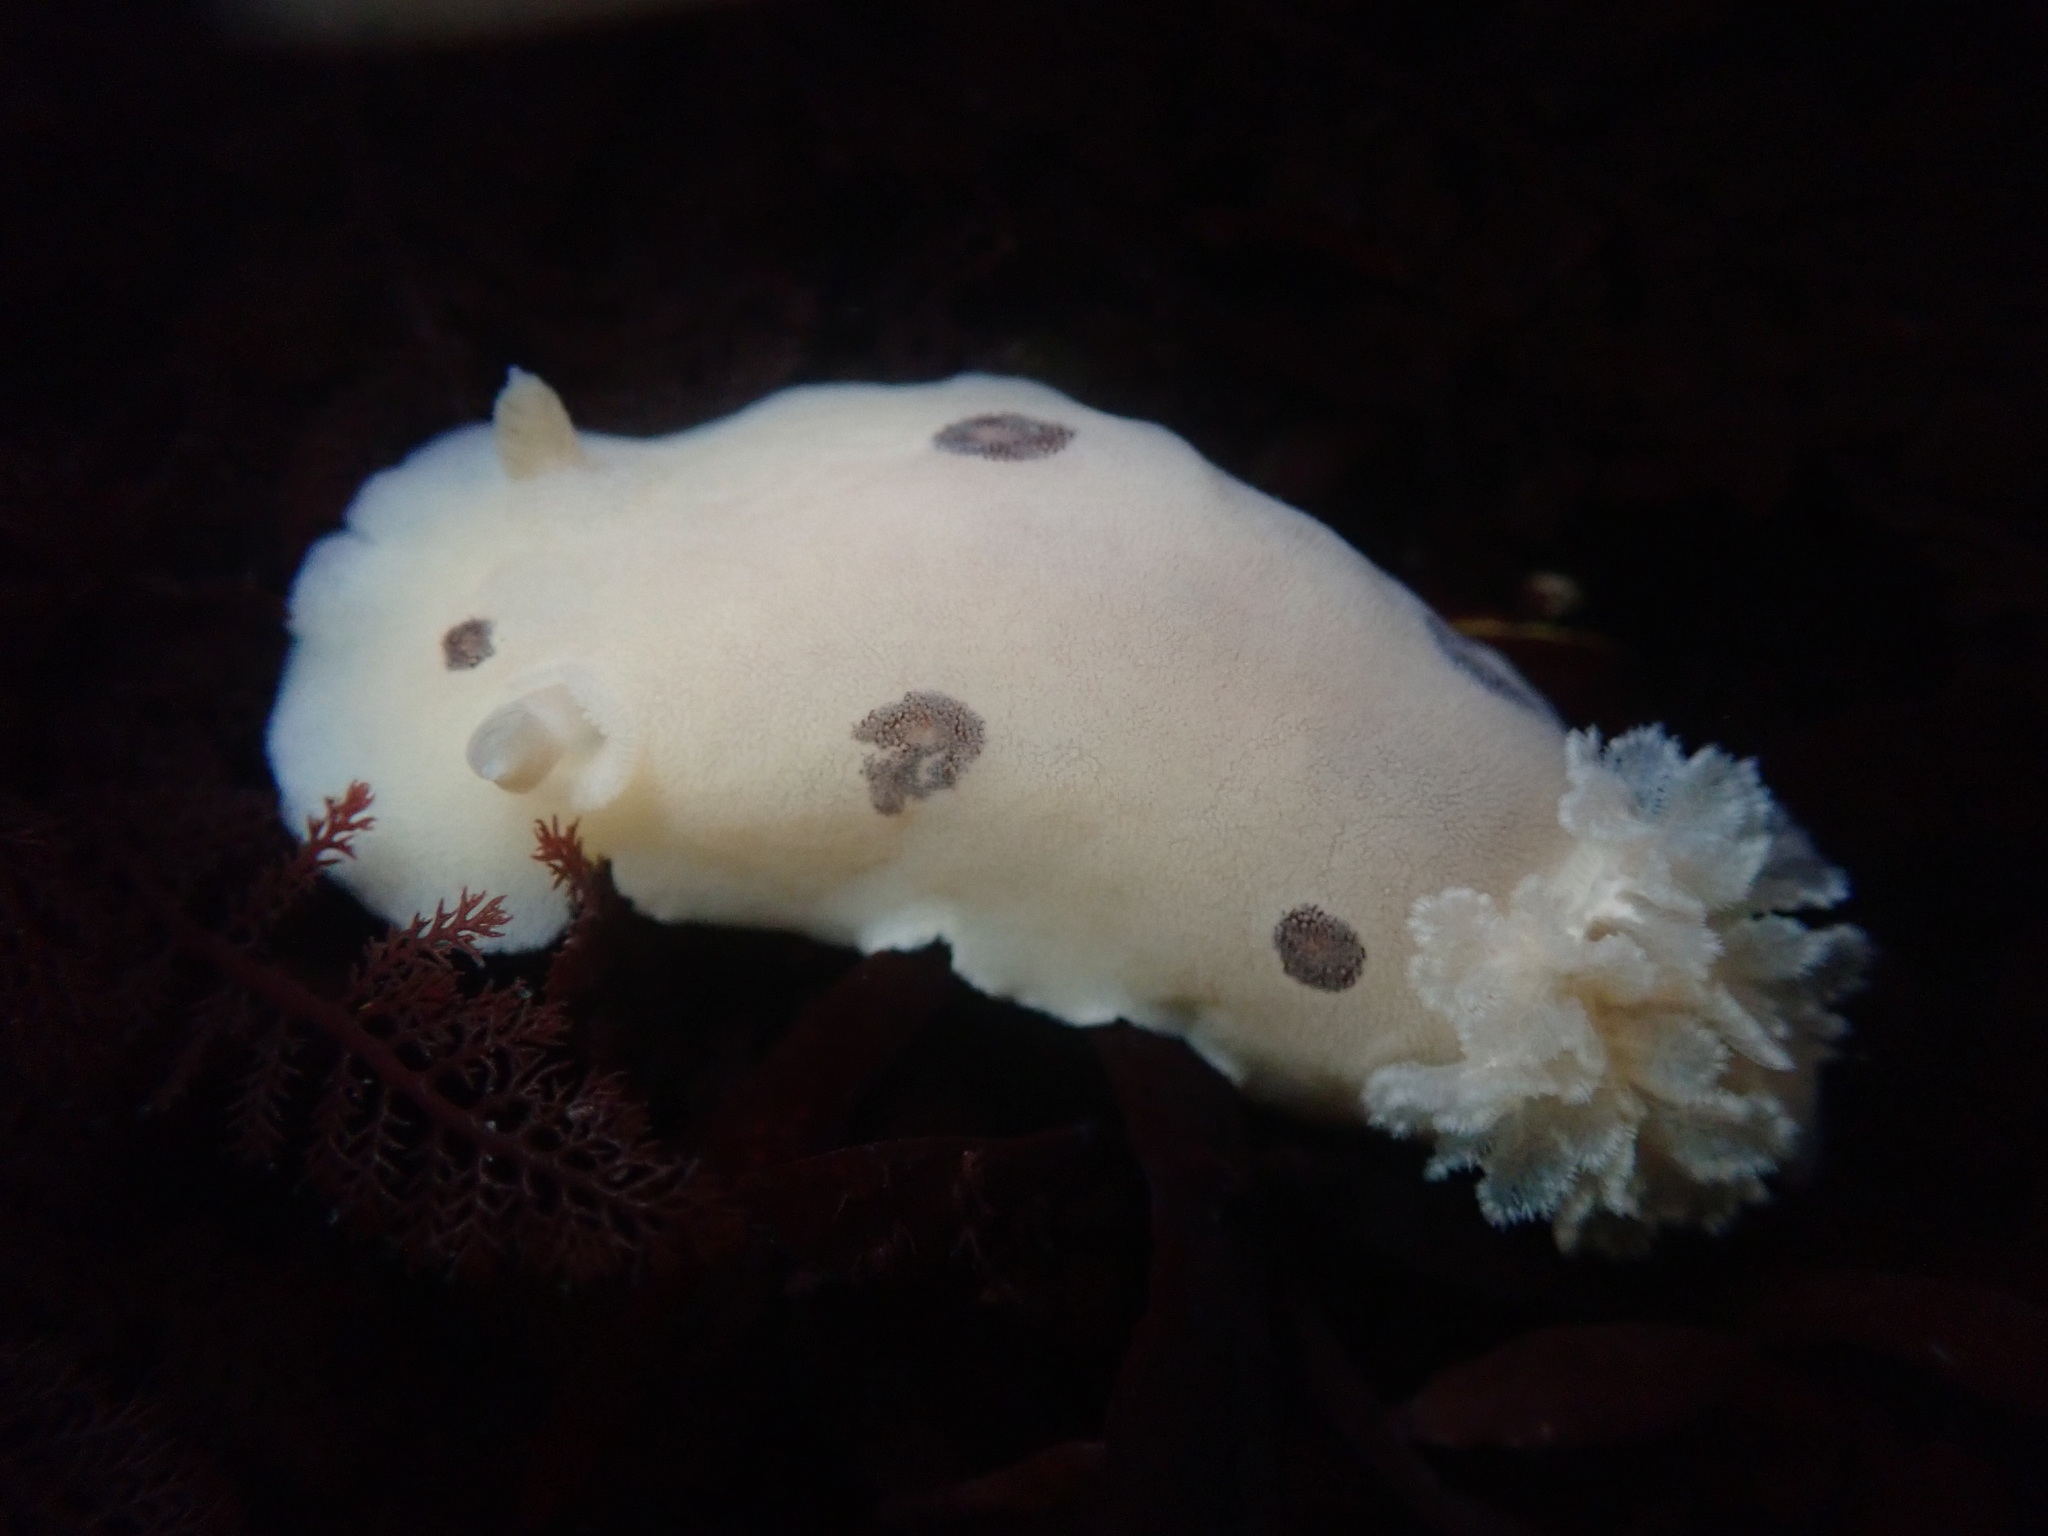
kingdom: Animalia
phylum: Mollusca
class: Gastropoda
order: Nudibranchia
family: Discodorididae
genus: Diaulula
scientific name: Diaulula sandiegensis
